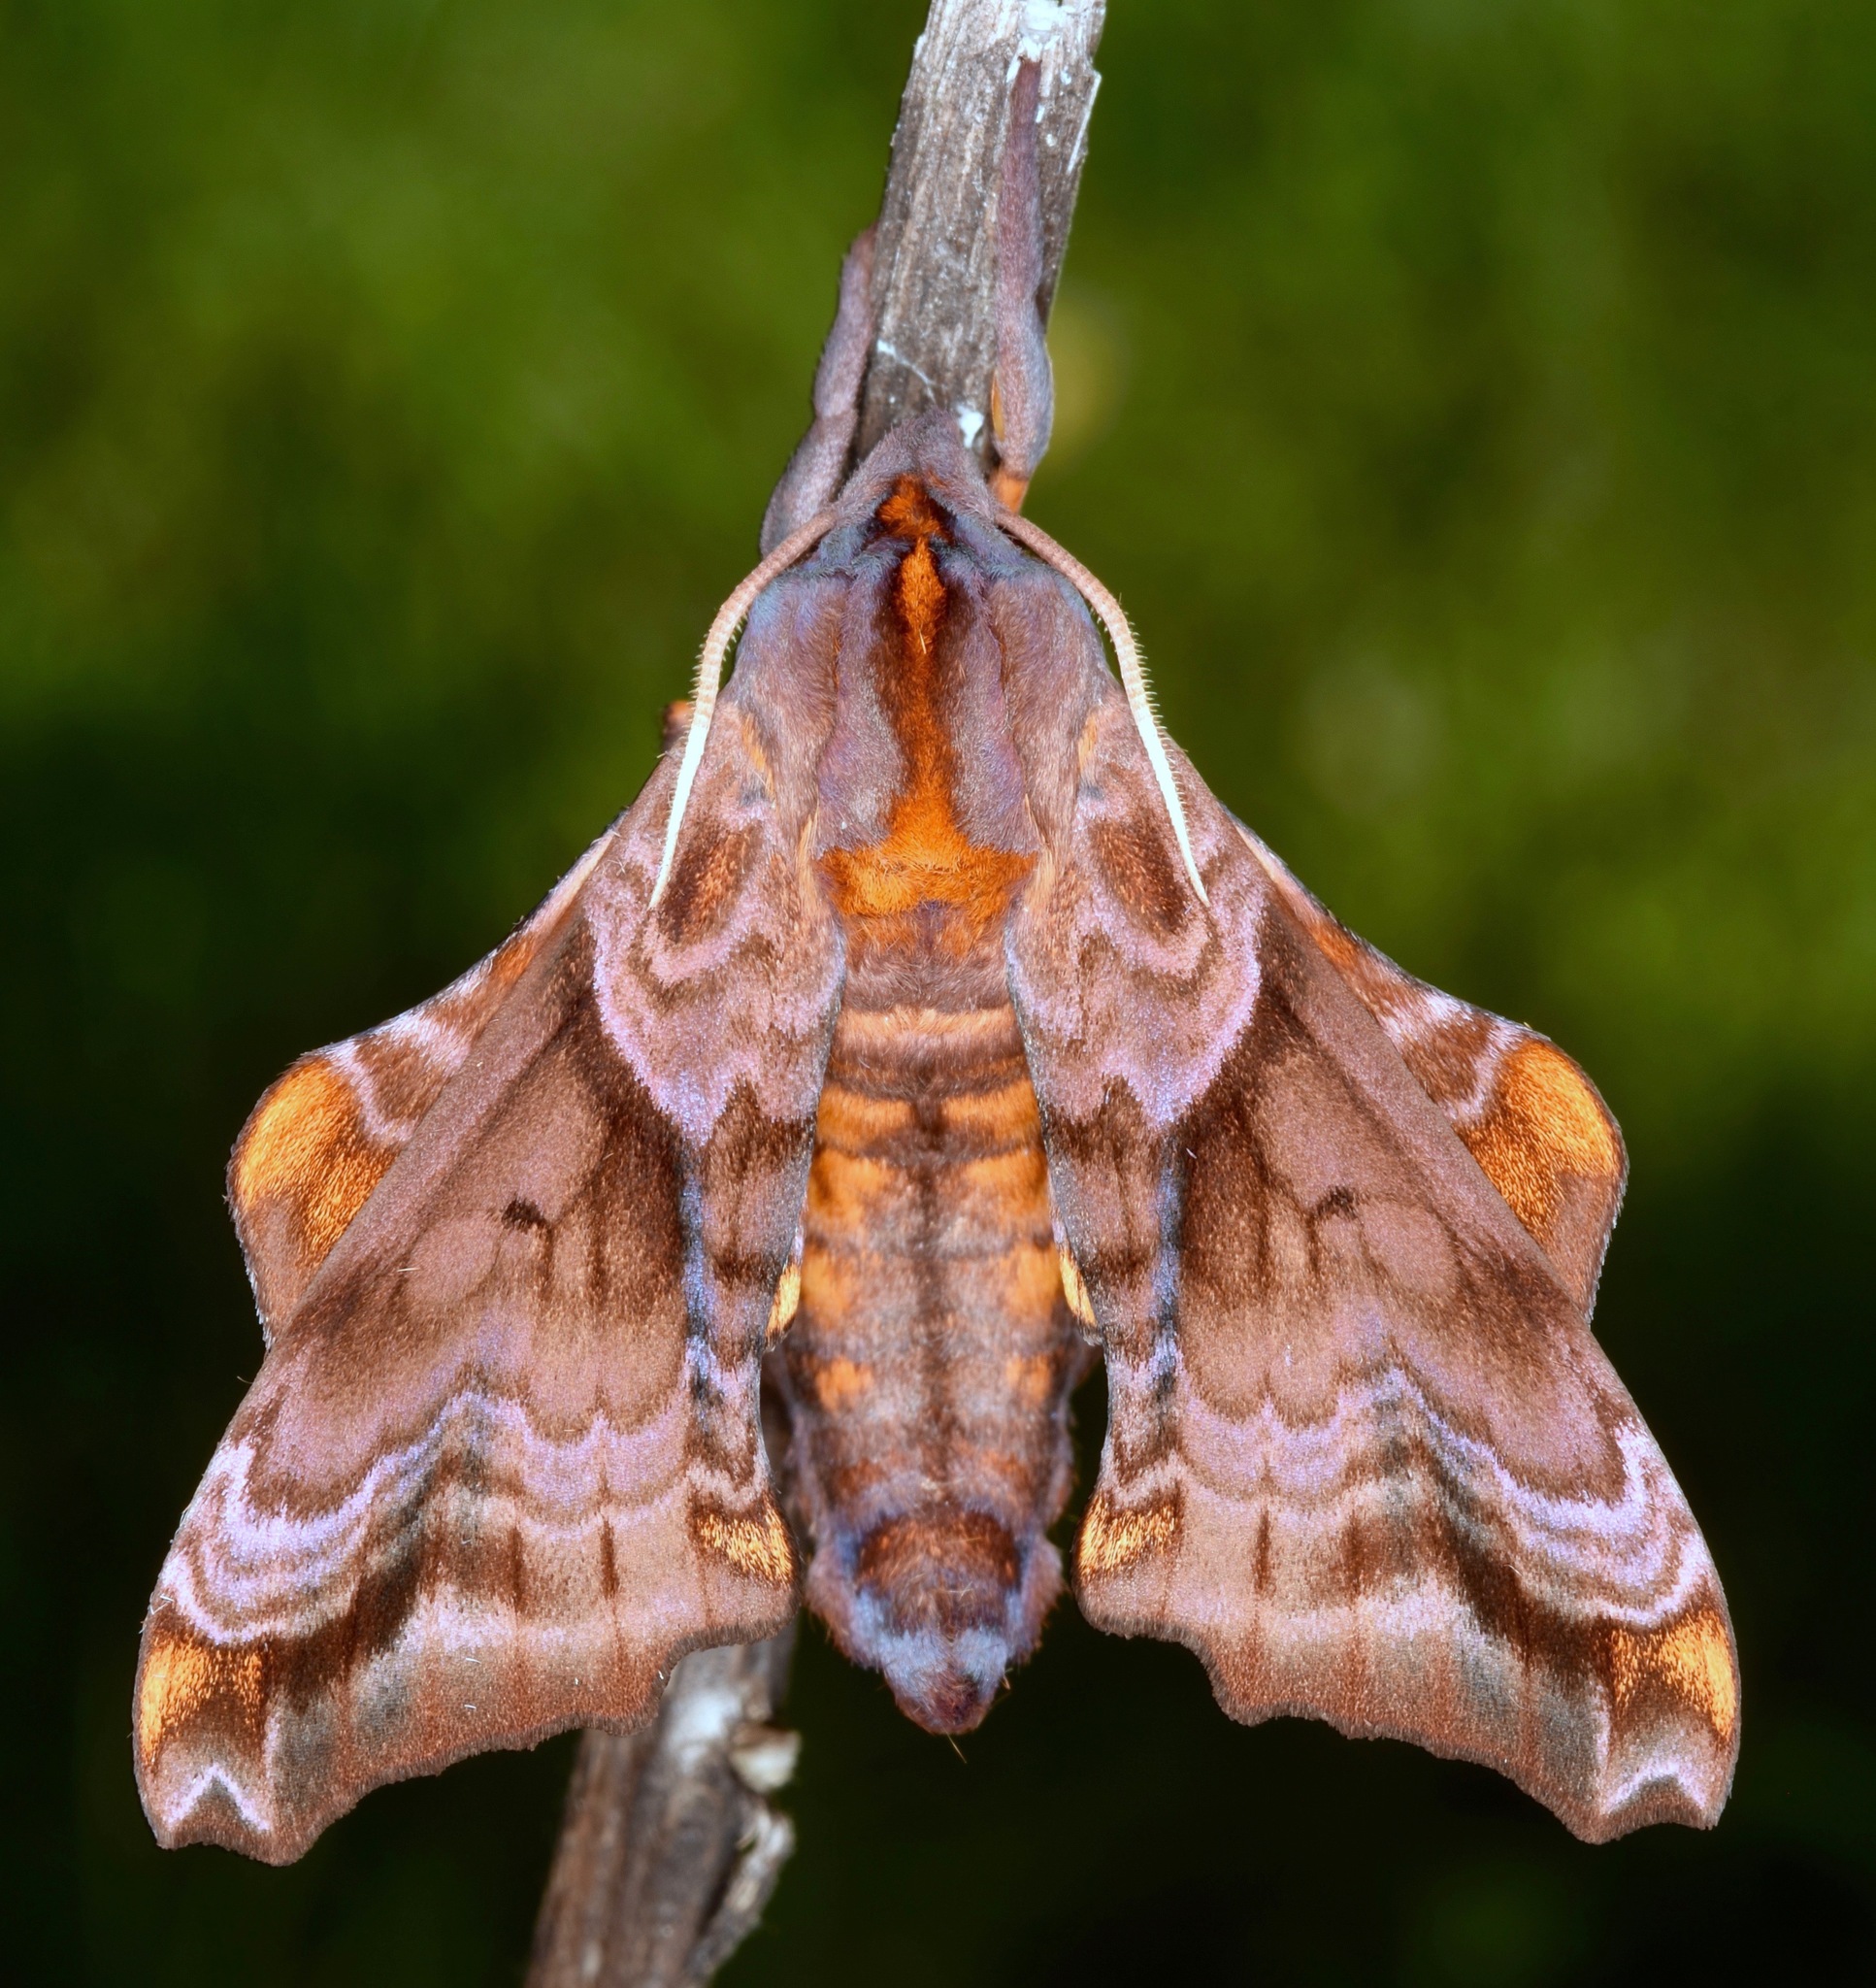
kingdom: Animalia
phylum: Arthropoda
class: Insecta
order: Lepidoptera
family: Sphingidae
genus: Paonias
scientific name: Paonias myops
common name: Small-eyed sphinx
